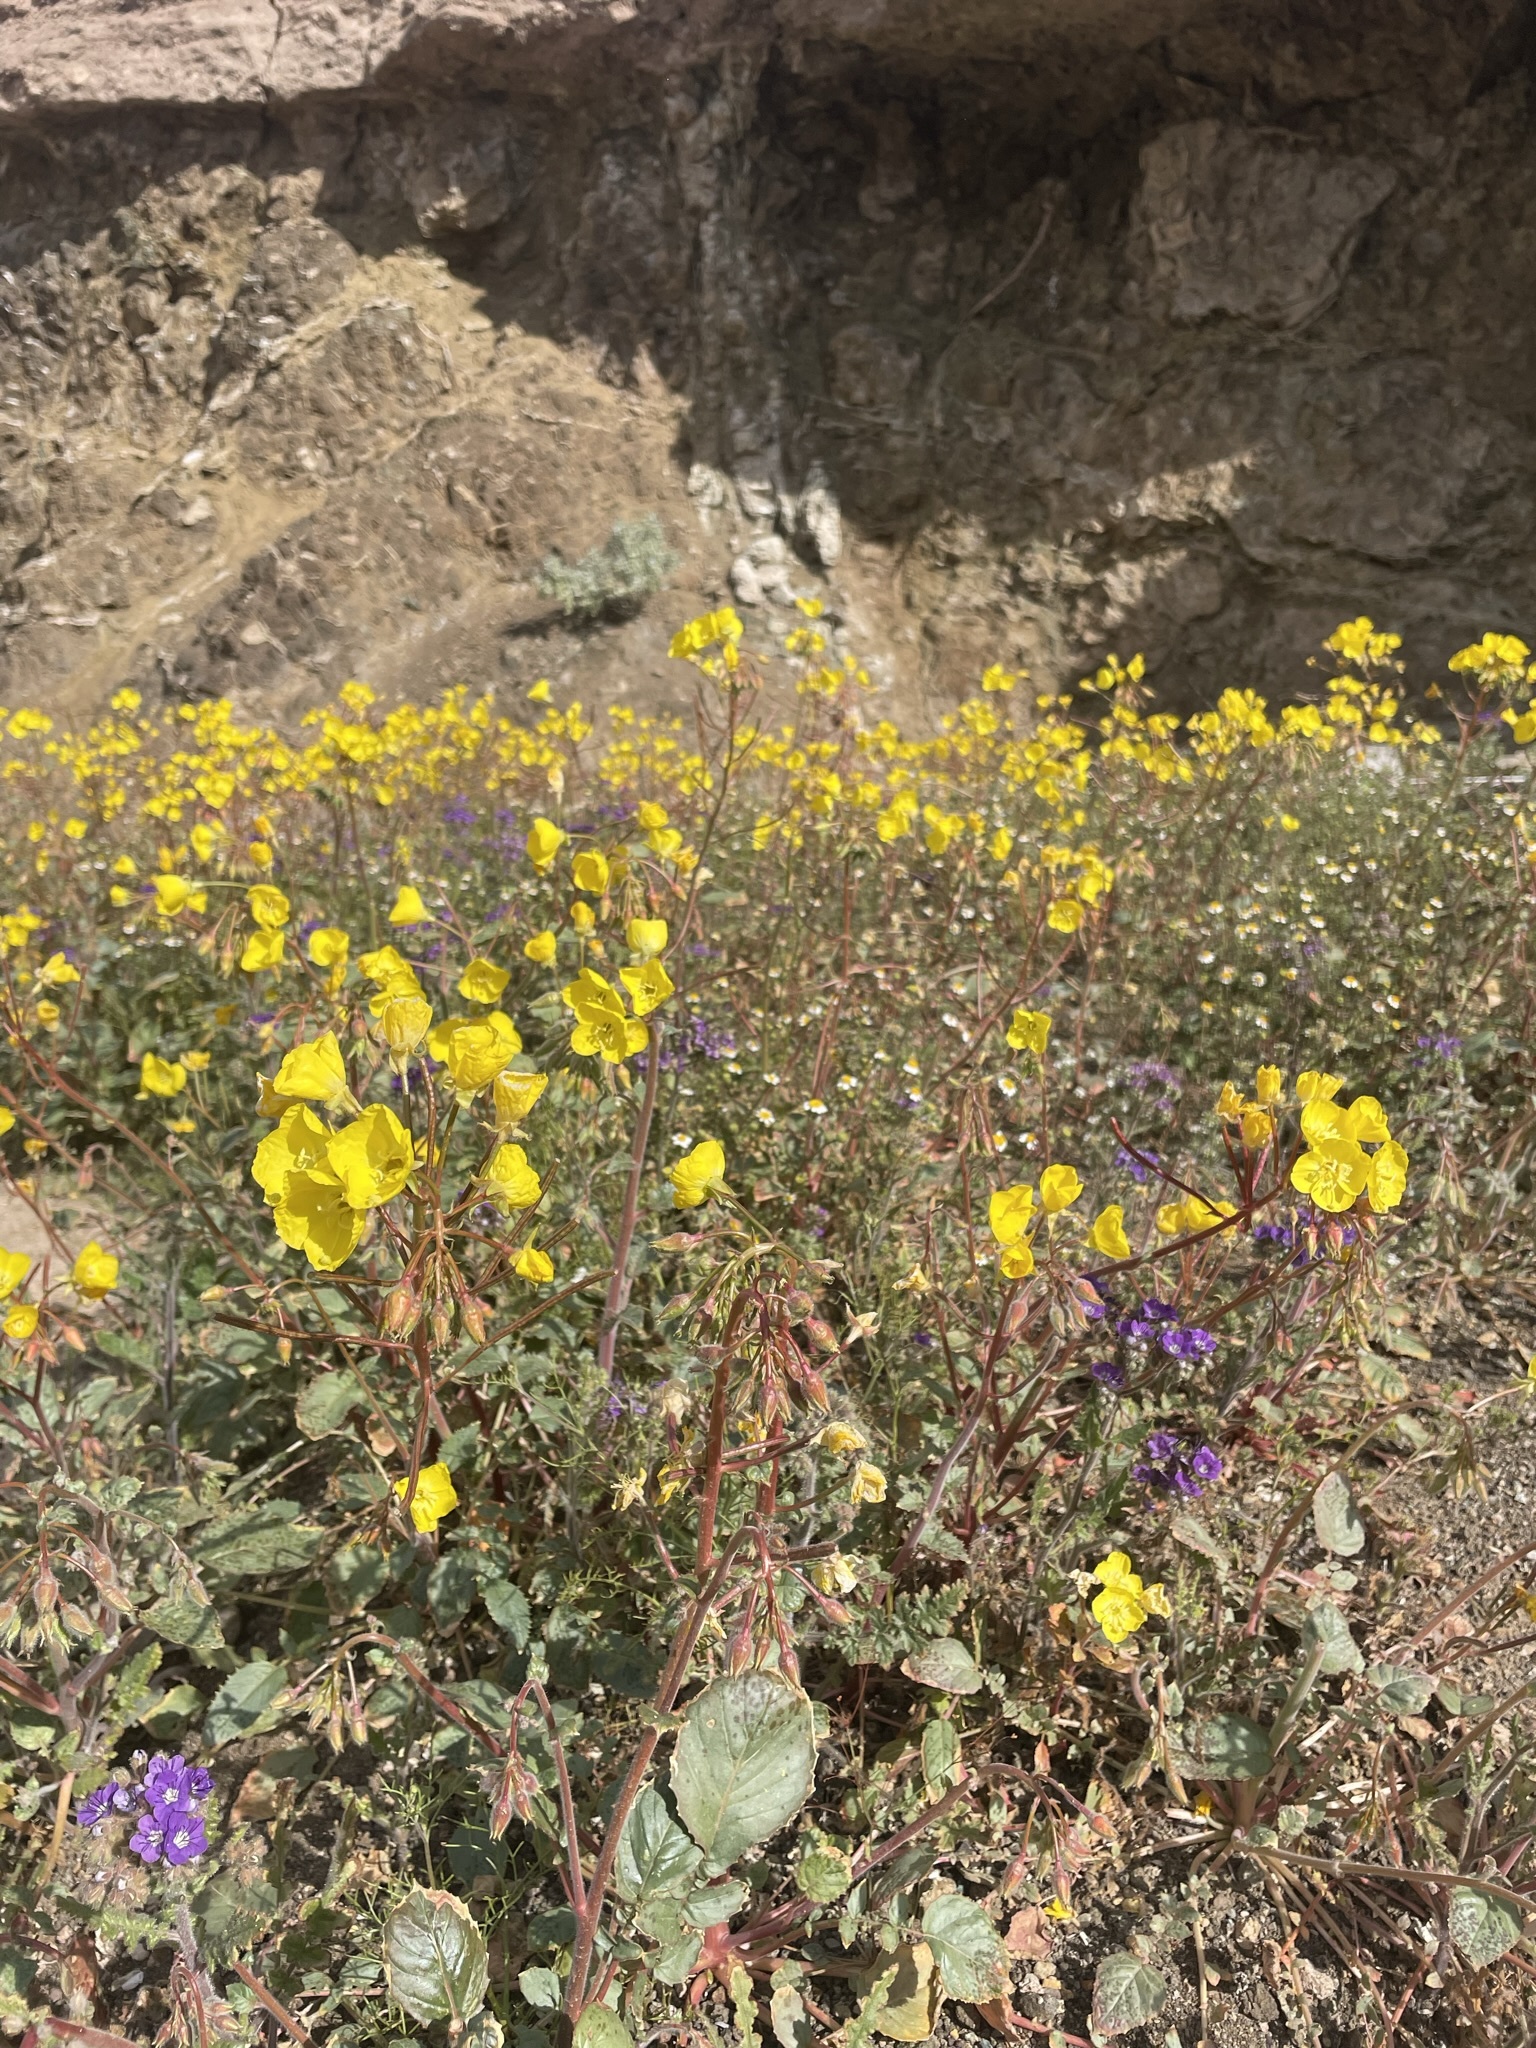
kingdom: Plantae
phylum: Tracheophyta
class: Magnoliopsida
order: Myrtales
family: Onagraceae
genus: Chylismia
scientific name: Chylismia brevipes
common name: Yellow cups
